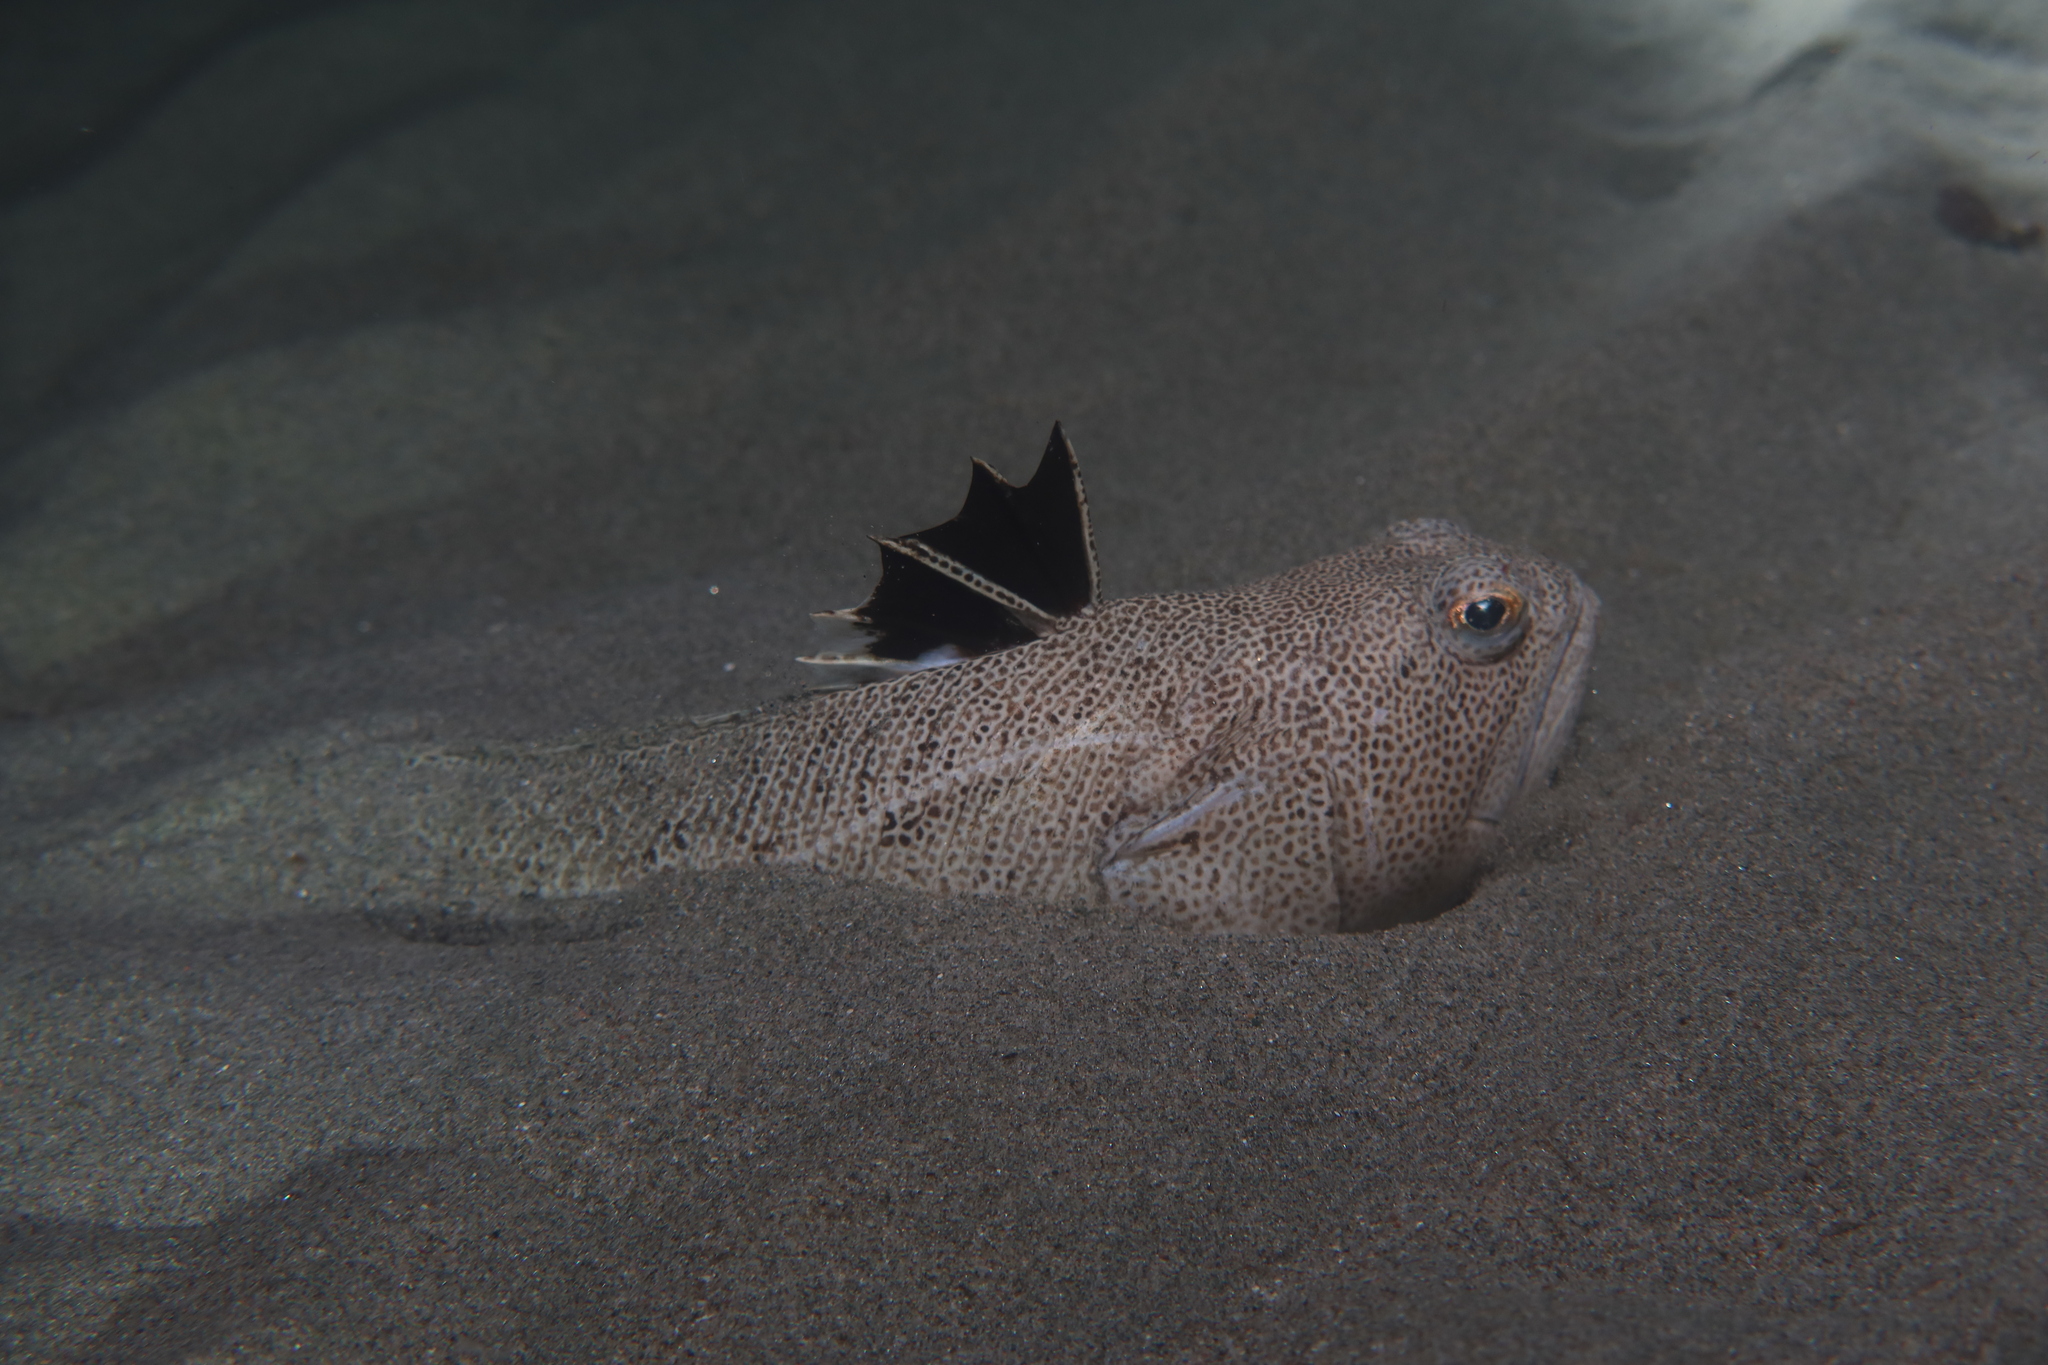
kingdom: Animalia
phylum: Chordata
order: Perciformes
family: Trachinidae
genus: Trachinus
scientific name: Trachinus araneus
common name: Spotted weever
